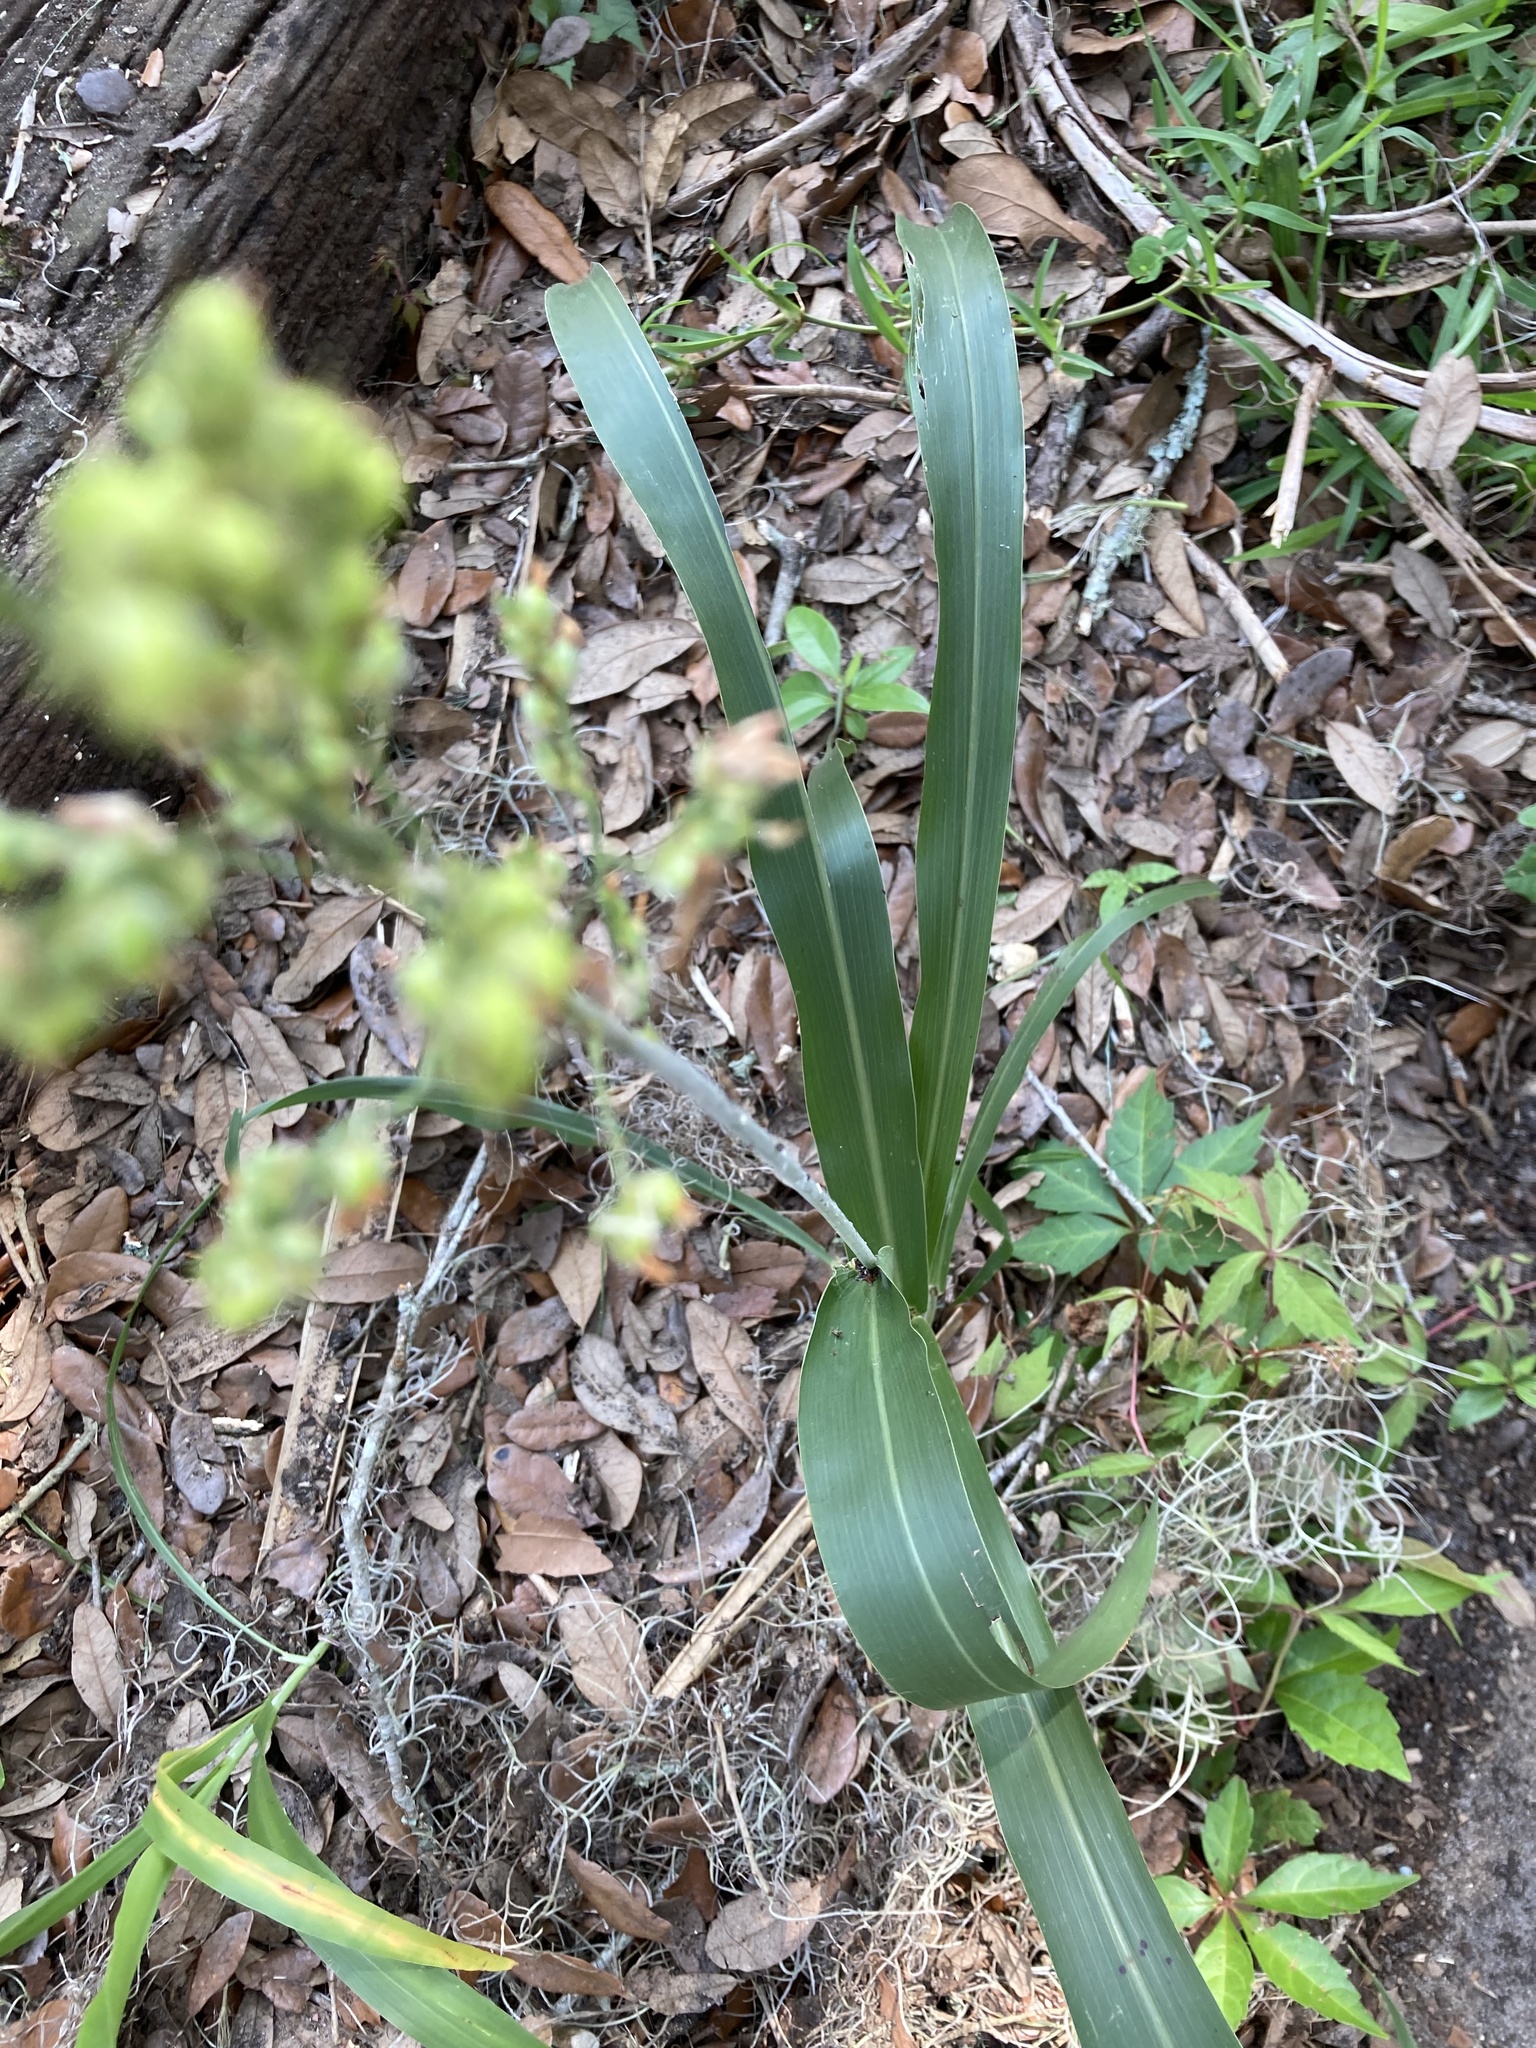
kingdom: Plantae
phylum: Tracheophyta
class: Liliopsida
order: Poales
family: Poaceae
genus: Sorghum
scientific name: Sorghum bicolor
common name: Sorghum
